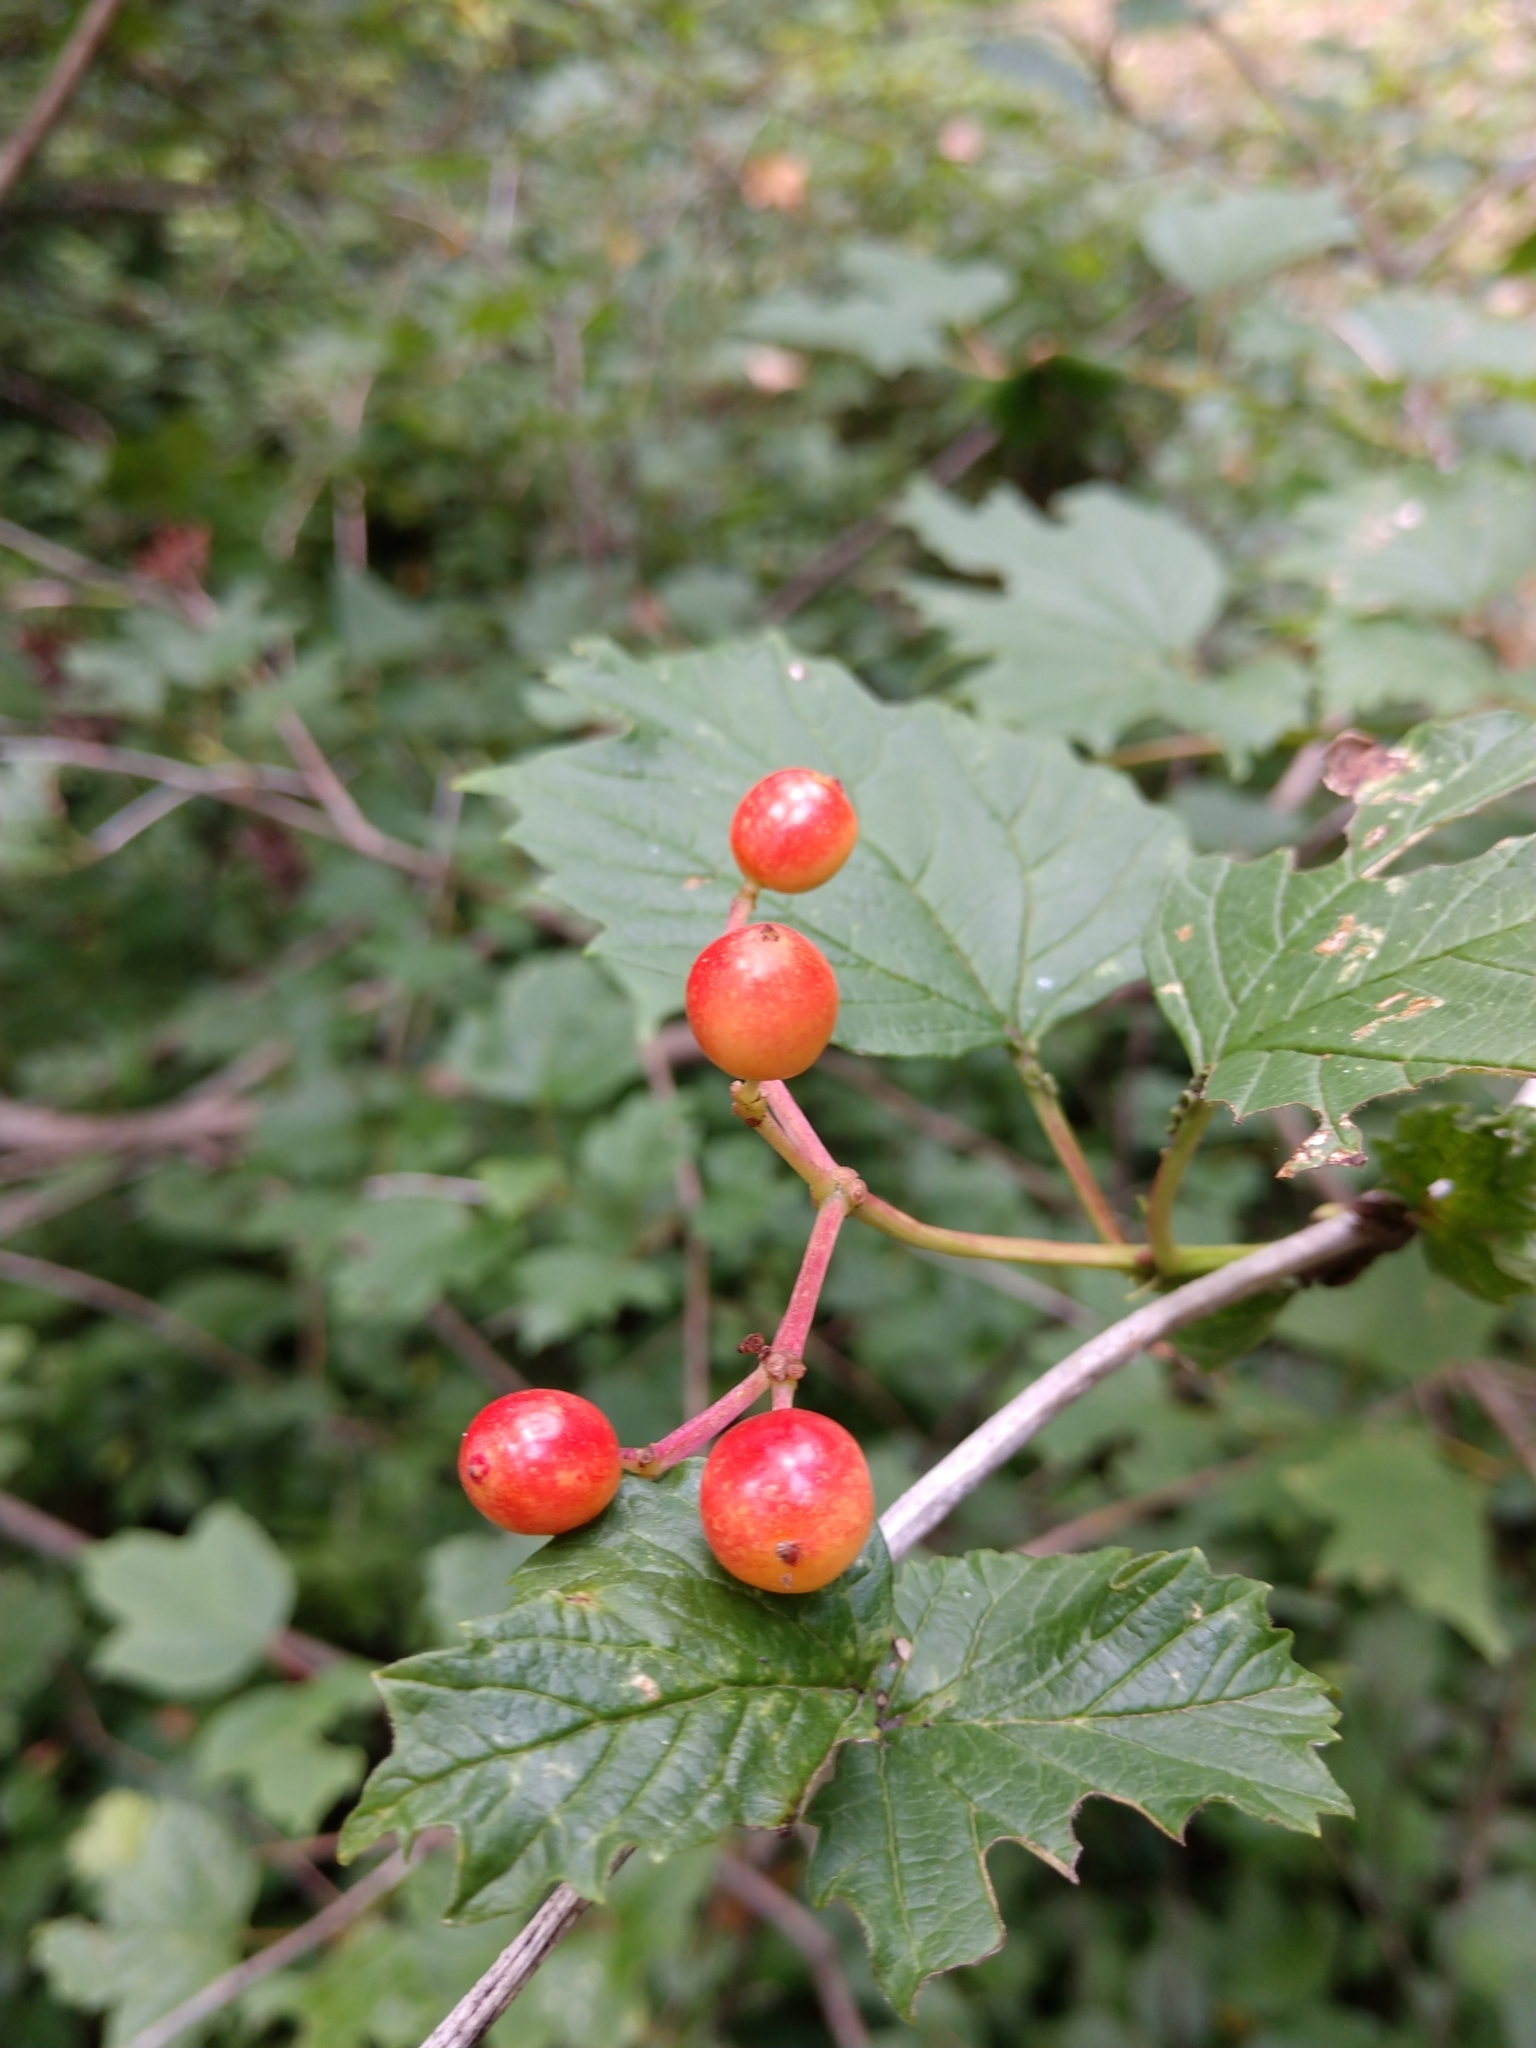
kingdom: Plantae
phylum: Tracheophyta
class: Magnoliopsida
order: Dipsacales
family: Viburnaceae
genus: Viburnum
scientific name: Viburnum opulus
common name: Guelder-rose
